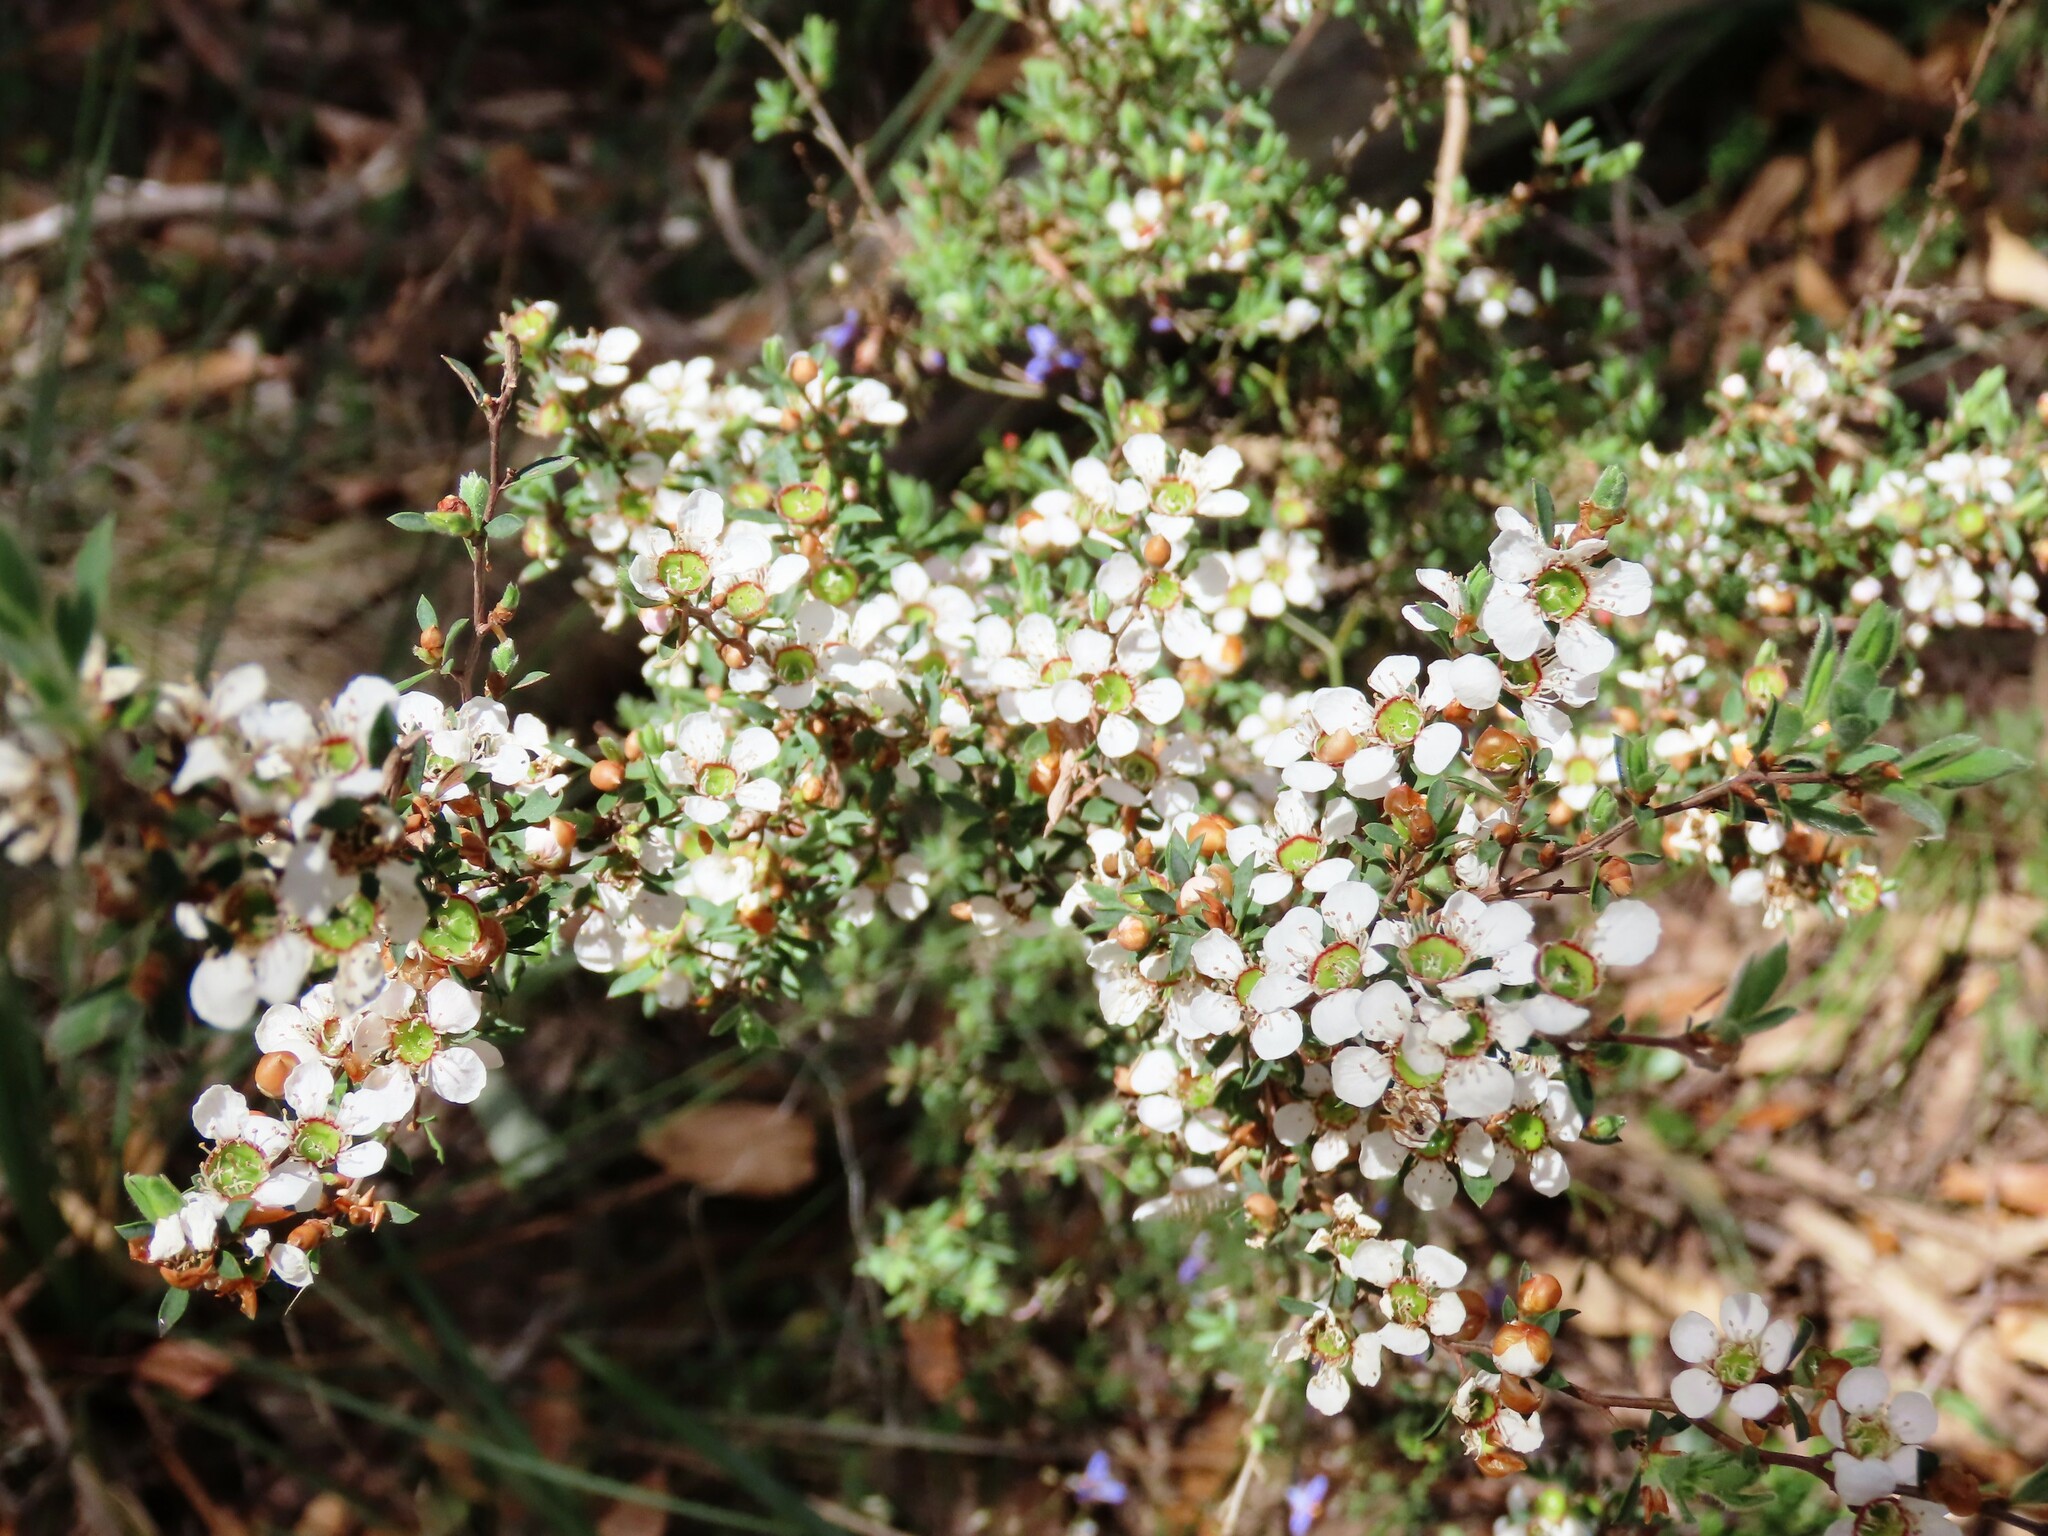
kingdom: Plantae
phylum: Tracheophyta
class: Magnoliopsida
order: Myrtales
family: Myrtaceae
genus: Leptospermum
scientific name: Leptospermum myrsinoides
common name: Heath teatree
